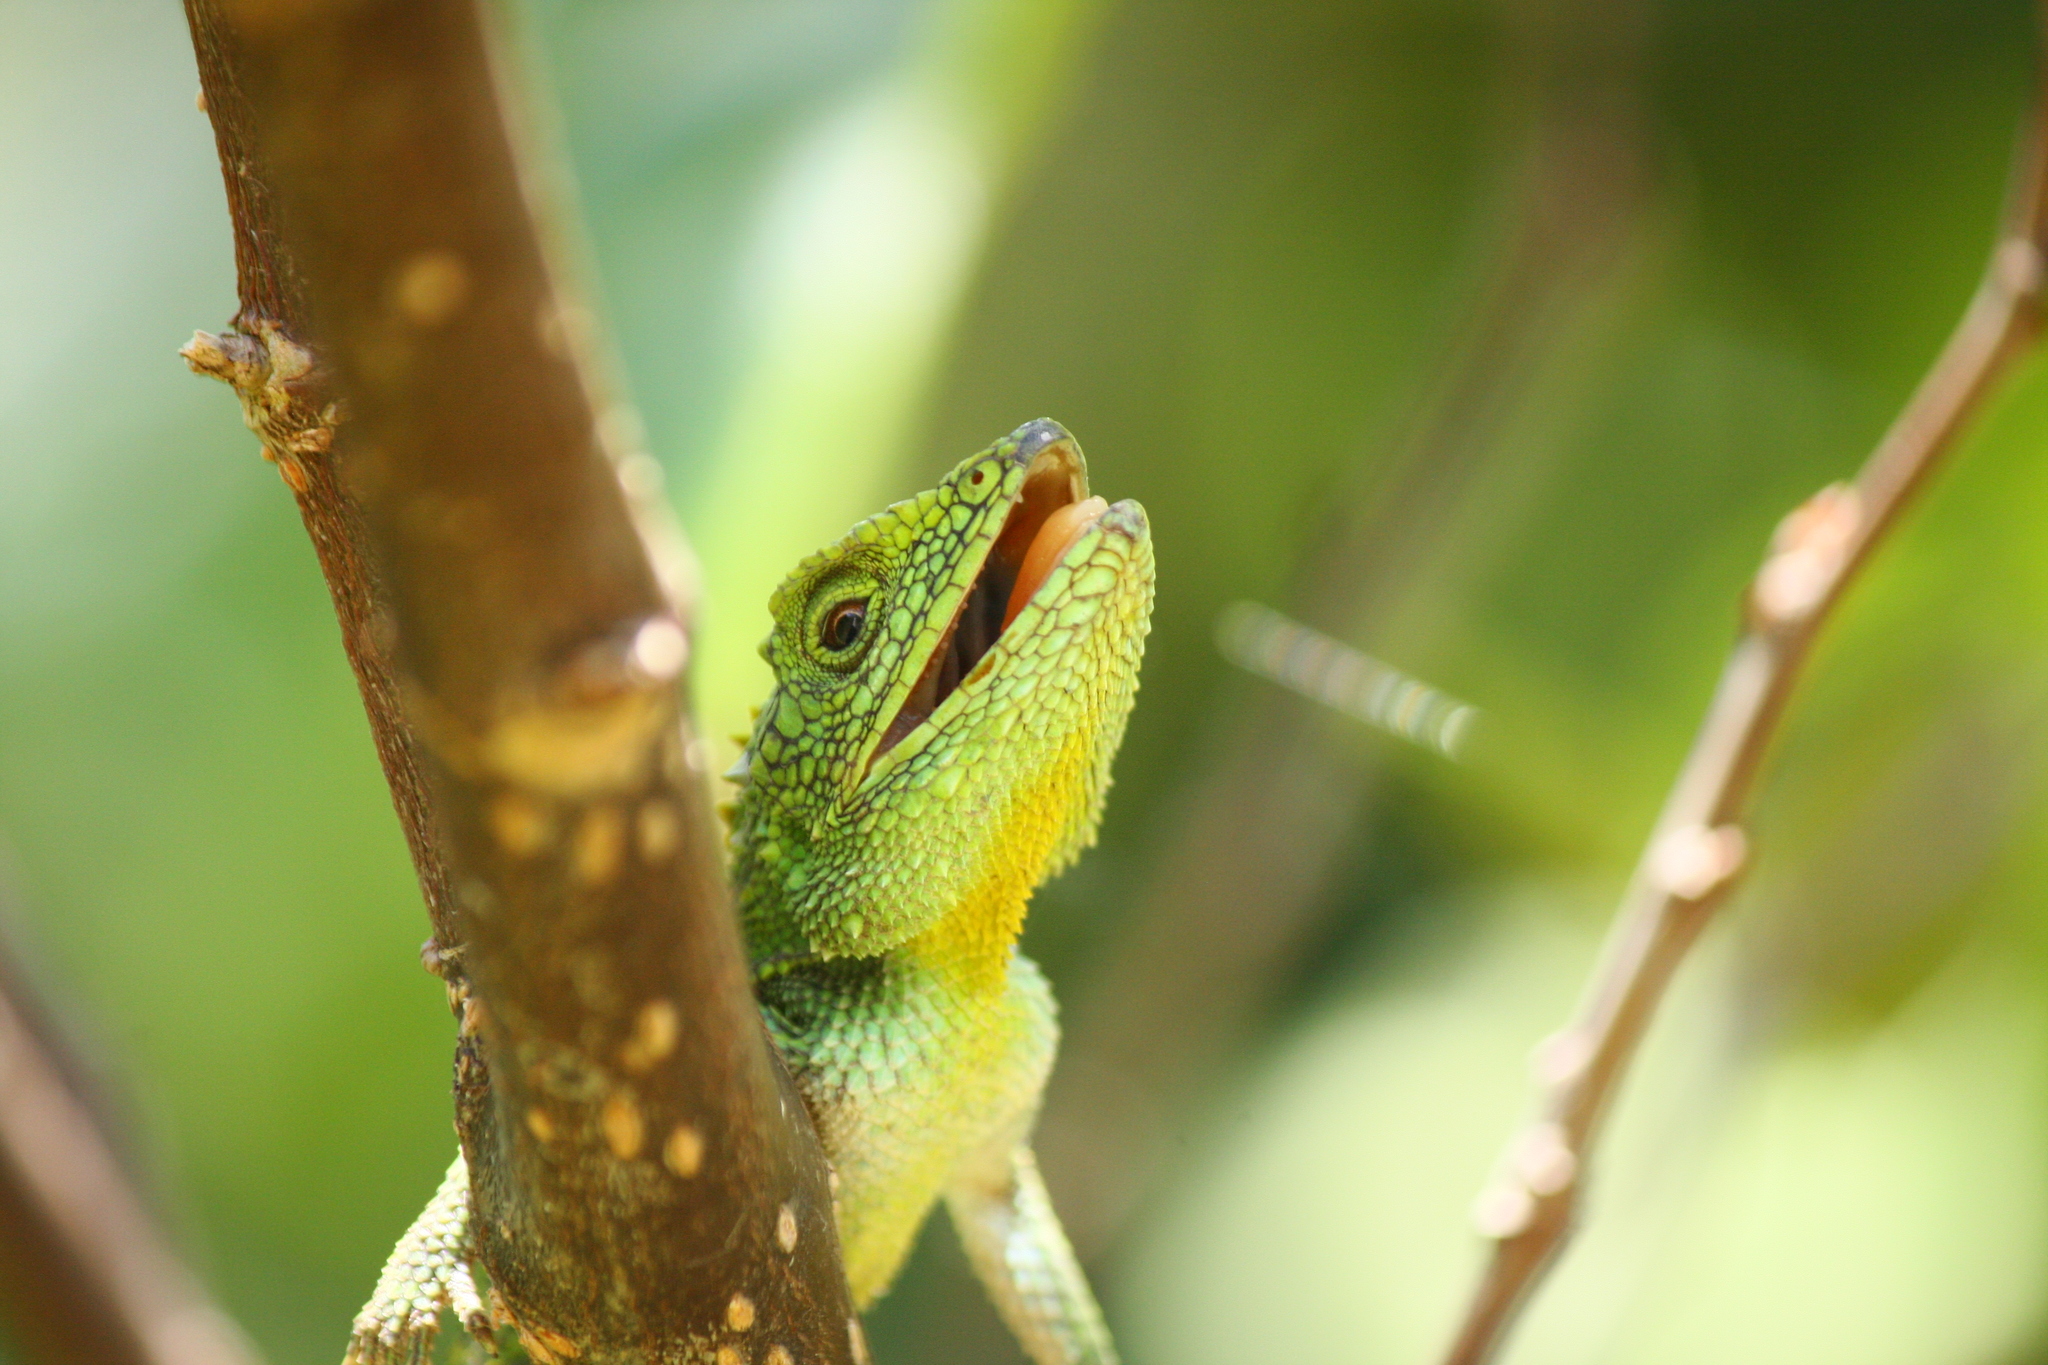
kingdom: Fungi
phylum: Basidiomycota
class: Agaricomycetes
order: Boletales
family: Diplocystidiaceae
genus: Diploderma
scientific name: Diploderma polygonatum
